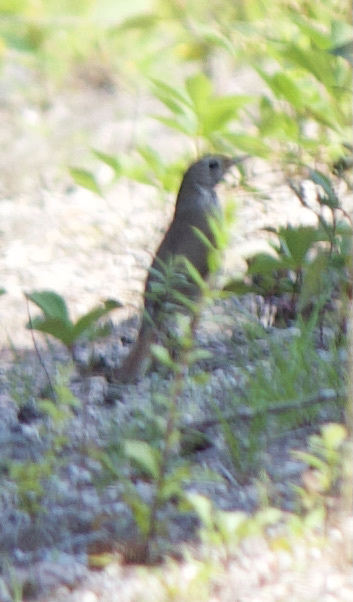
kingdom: Animalia
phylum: Chordata
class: Aves
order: Passeriformes
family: Turdidae
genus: Catharus
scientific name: Catharus guttatus
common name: Hermit thrush
